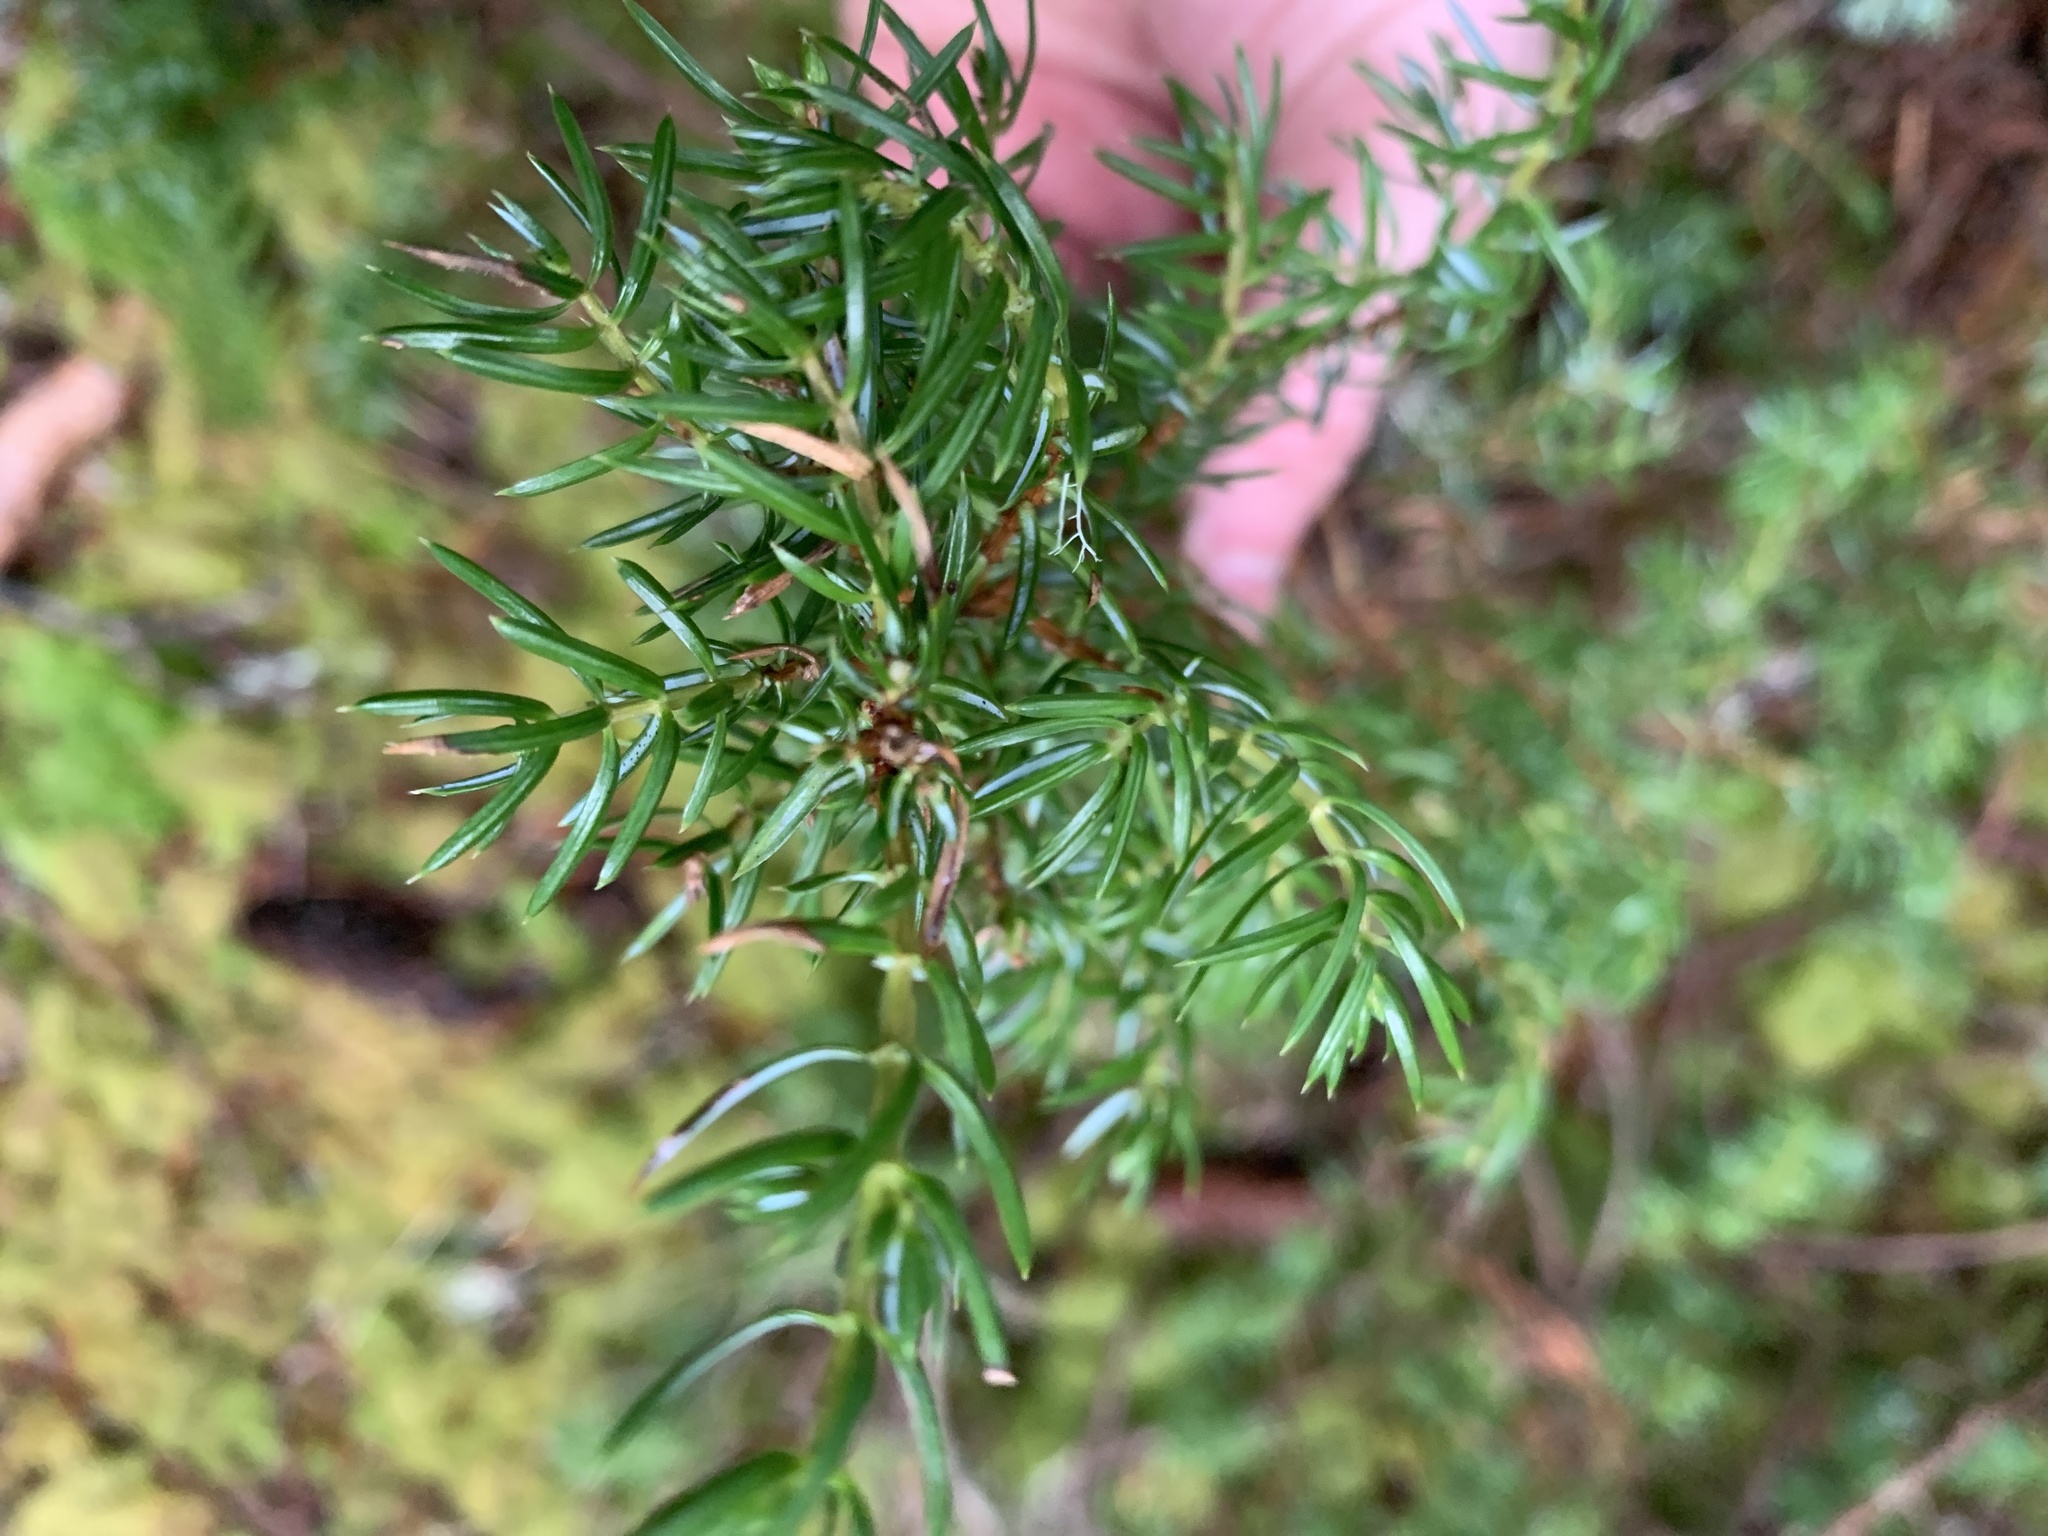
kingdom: Plantae
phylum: Tracheophyta
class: Pinopsida
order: Pinales
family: Cupressaceae
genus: Juniperus
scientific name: Juniperus communis
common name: Common juniper
